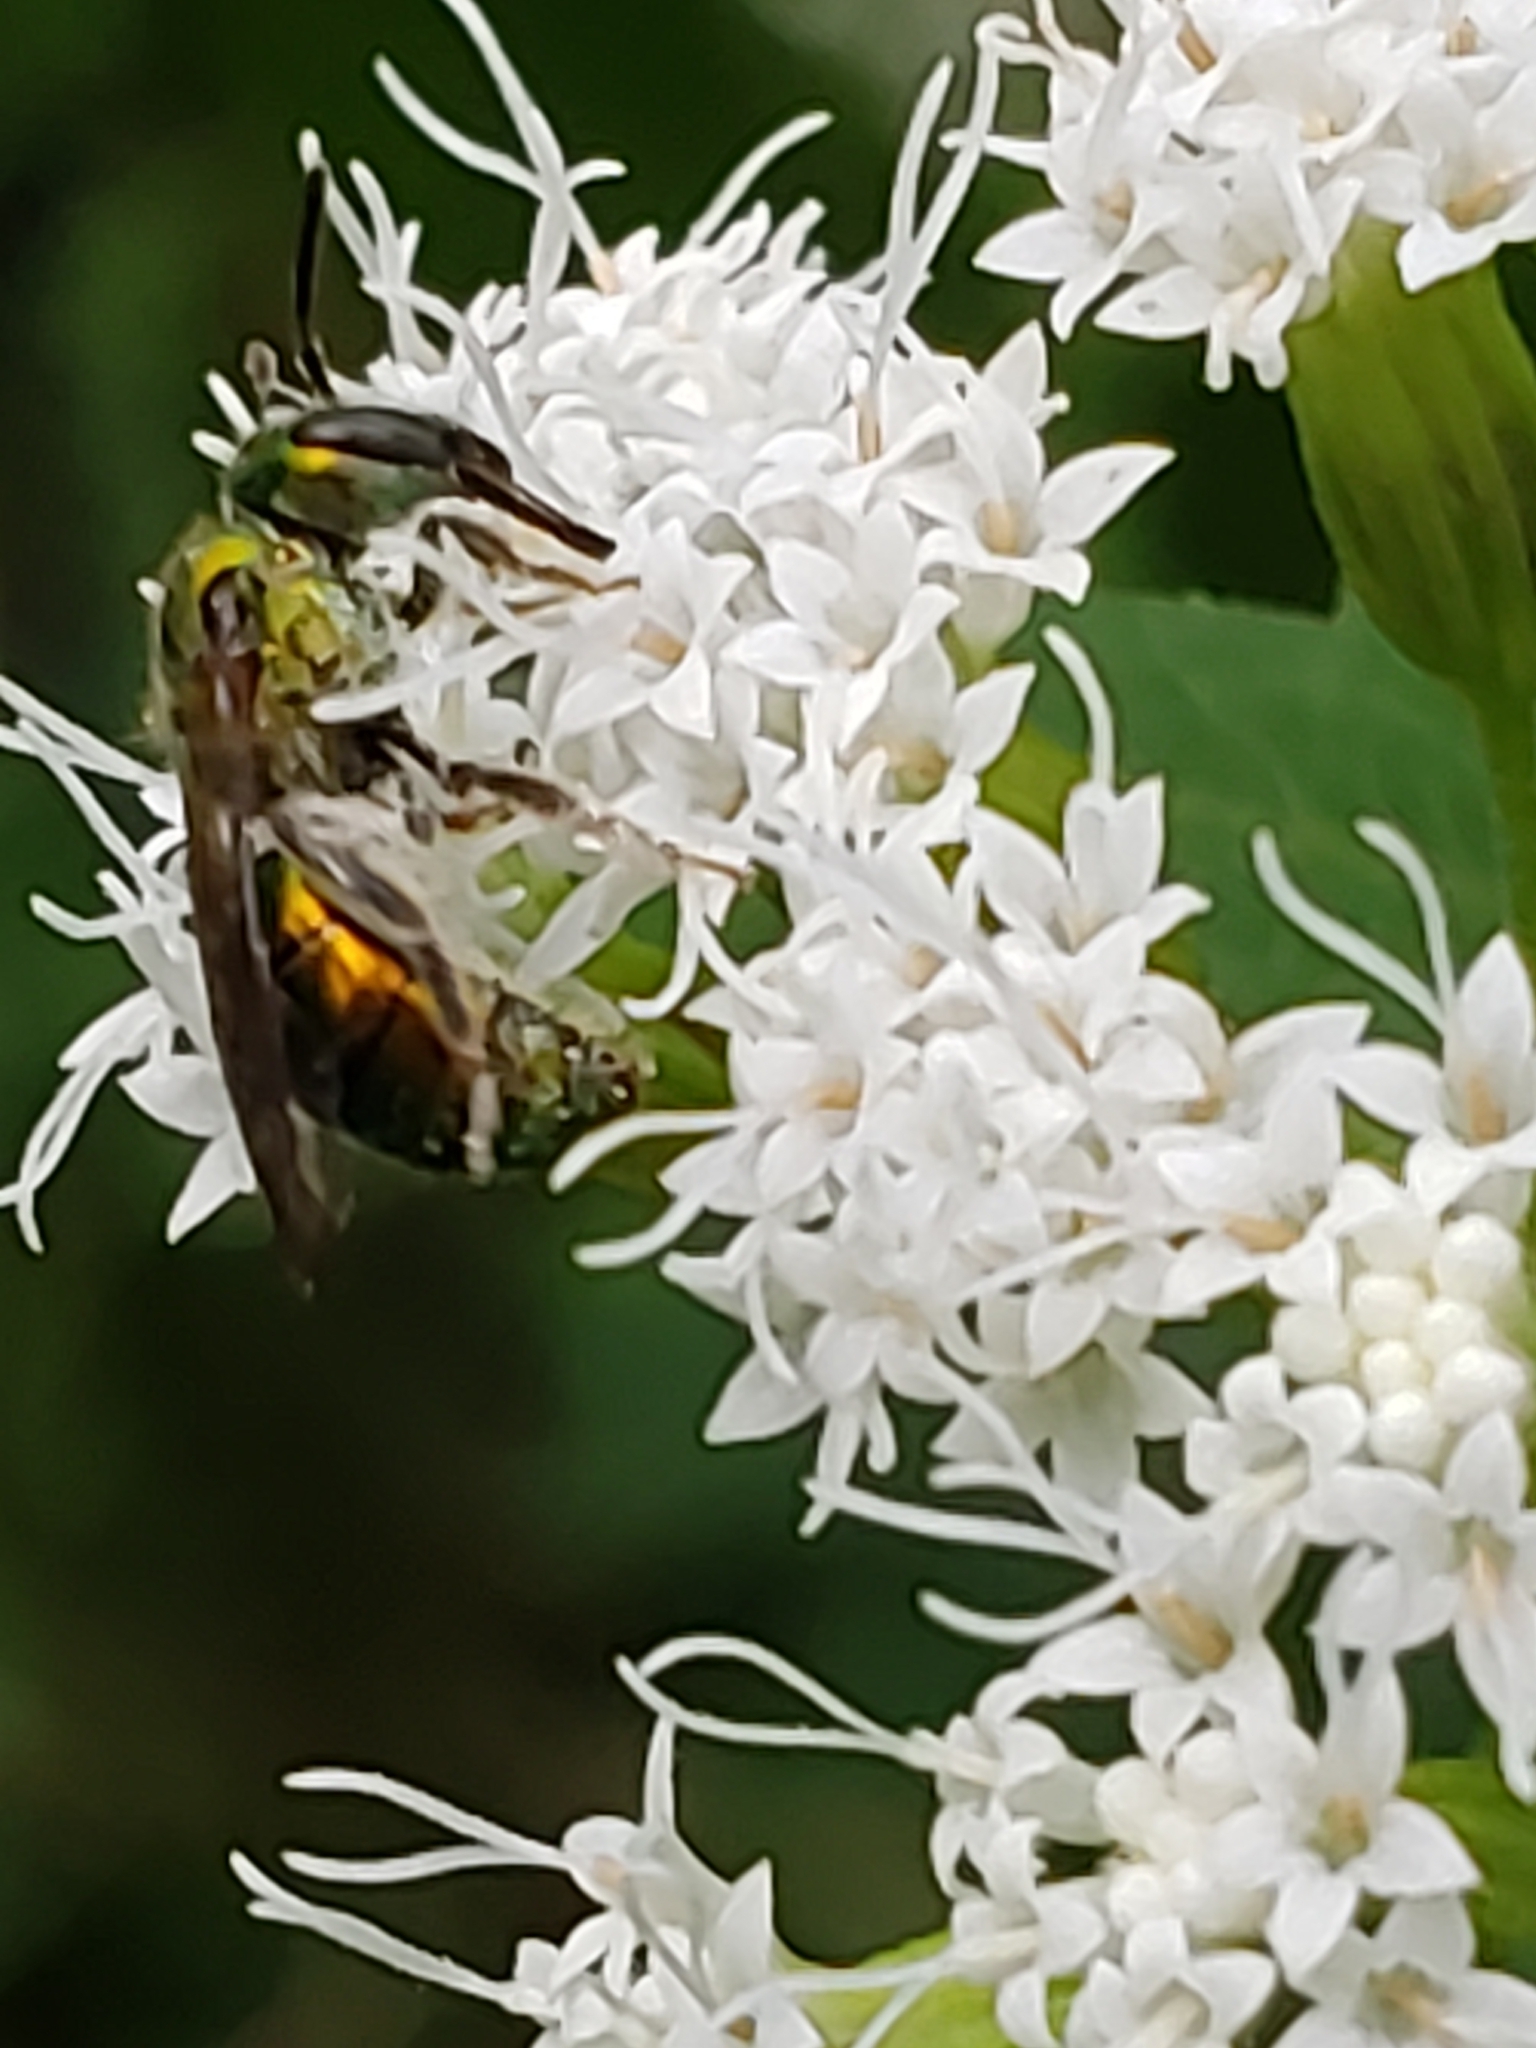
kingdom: Animalia
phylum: Arthropoda
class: Insecta
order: Hymenoptera
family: Halictidae
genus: Augochlora
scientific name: Augochlora pura
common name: Pure green sweat bee
